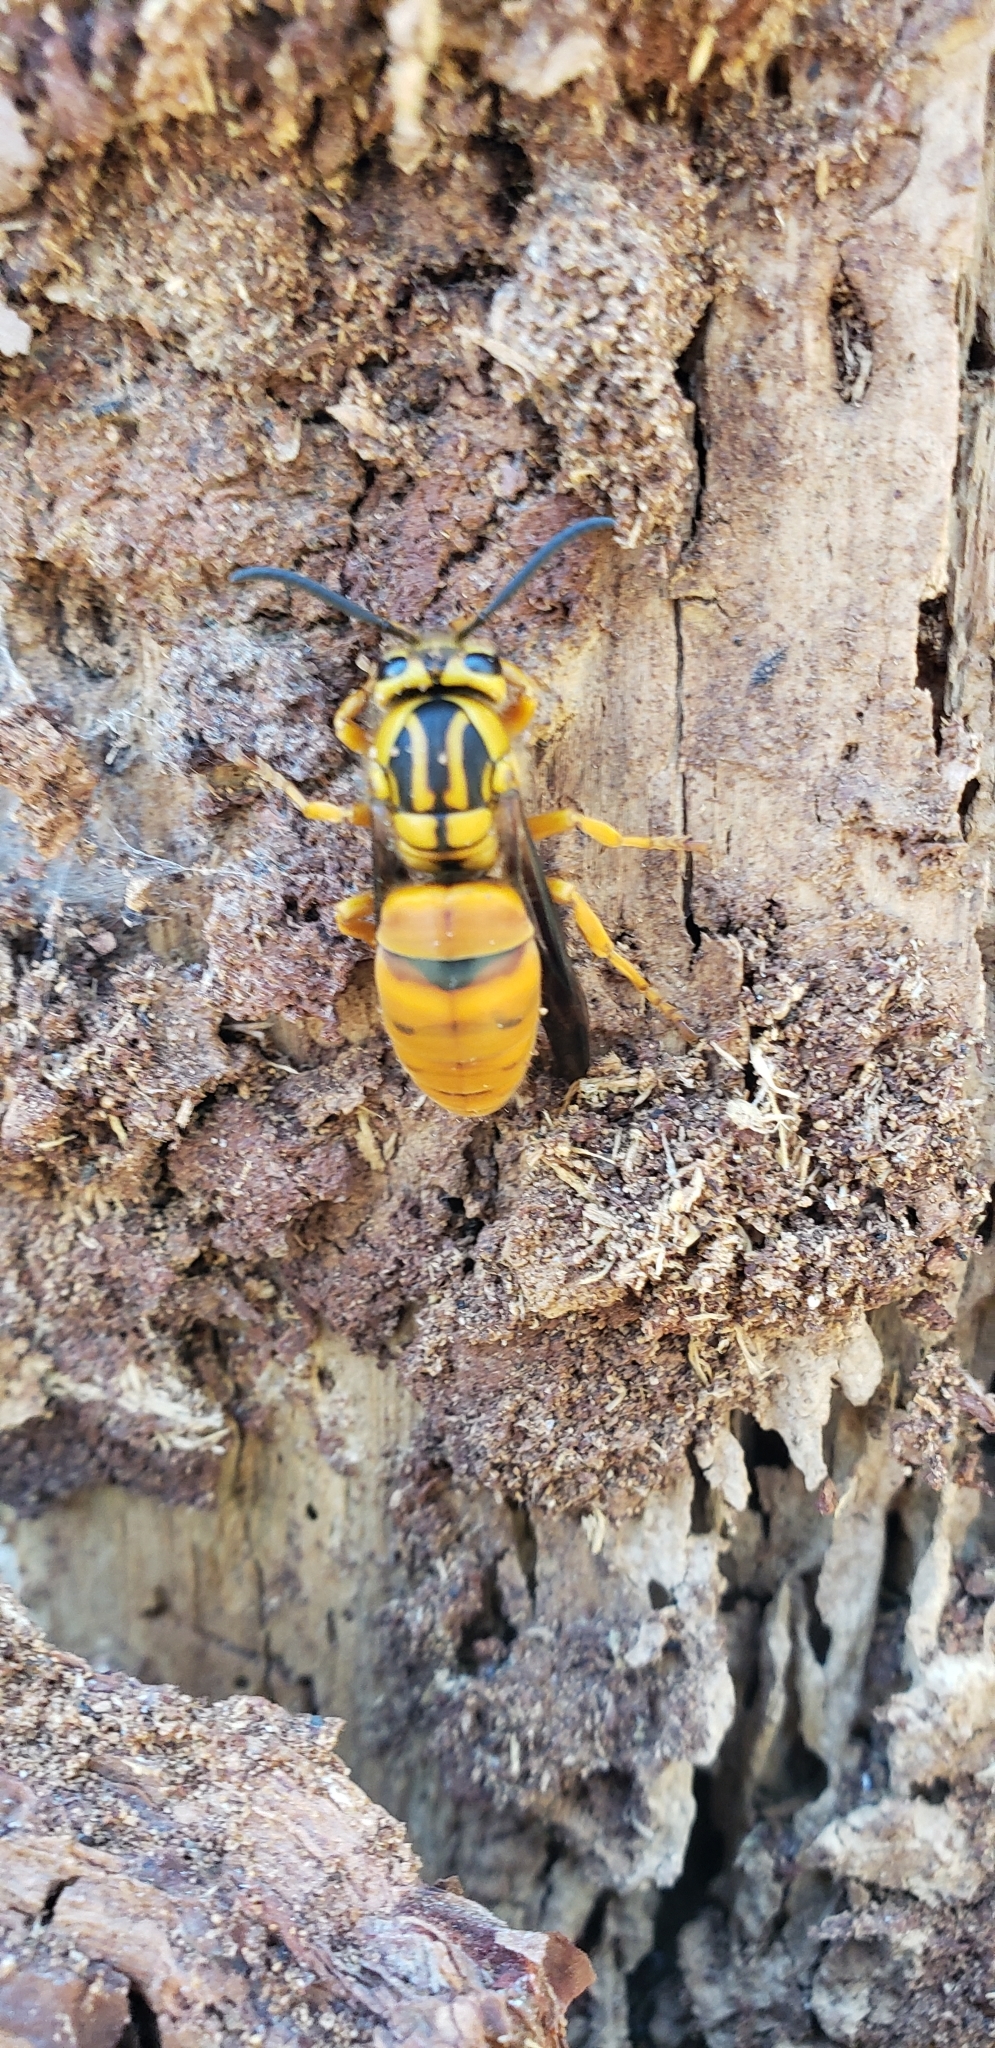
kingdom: Animalia
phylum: Arthropoda
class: Insecta
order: Hymenoptera
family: Vespidae
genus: Vespula
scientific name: Vespula squamosa
